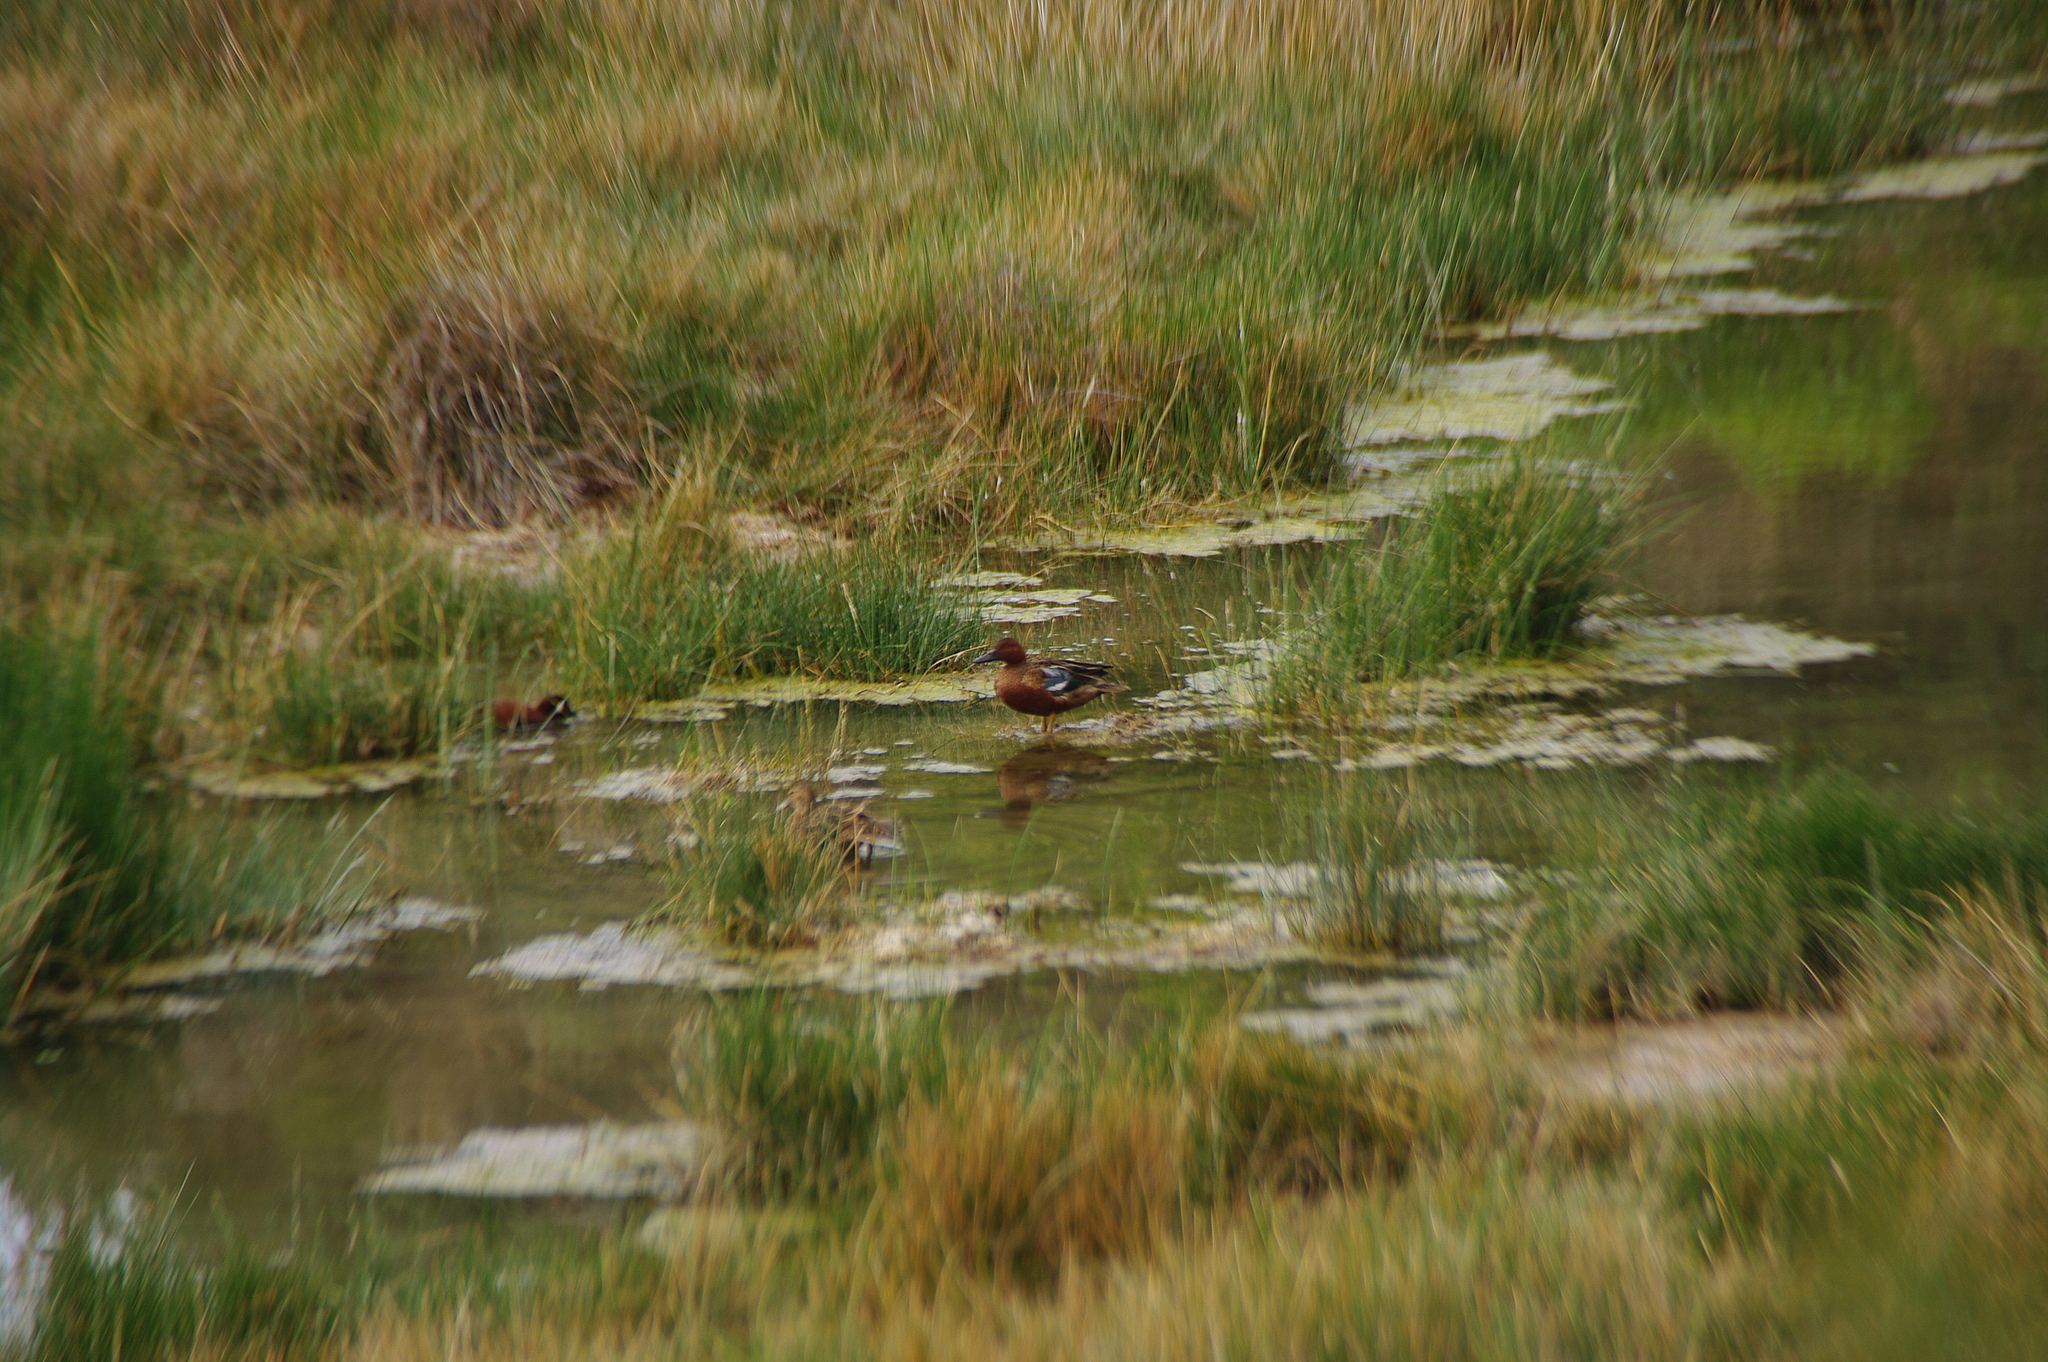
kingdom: Animalia
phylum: Chordata
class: Aves
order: Anseriformes
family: Anatidae
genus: Spatula
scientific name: Spatula cyanoptera
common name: Cinnamon teal
